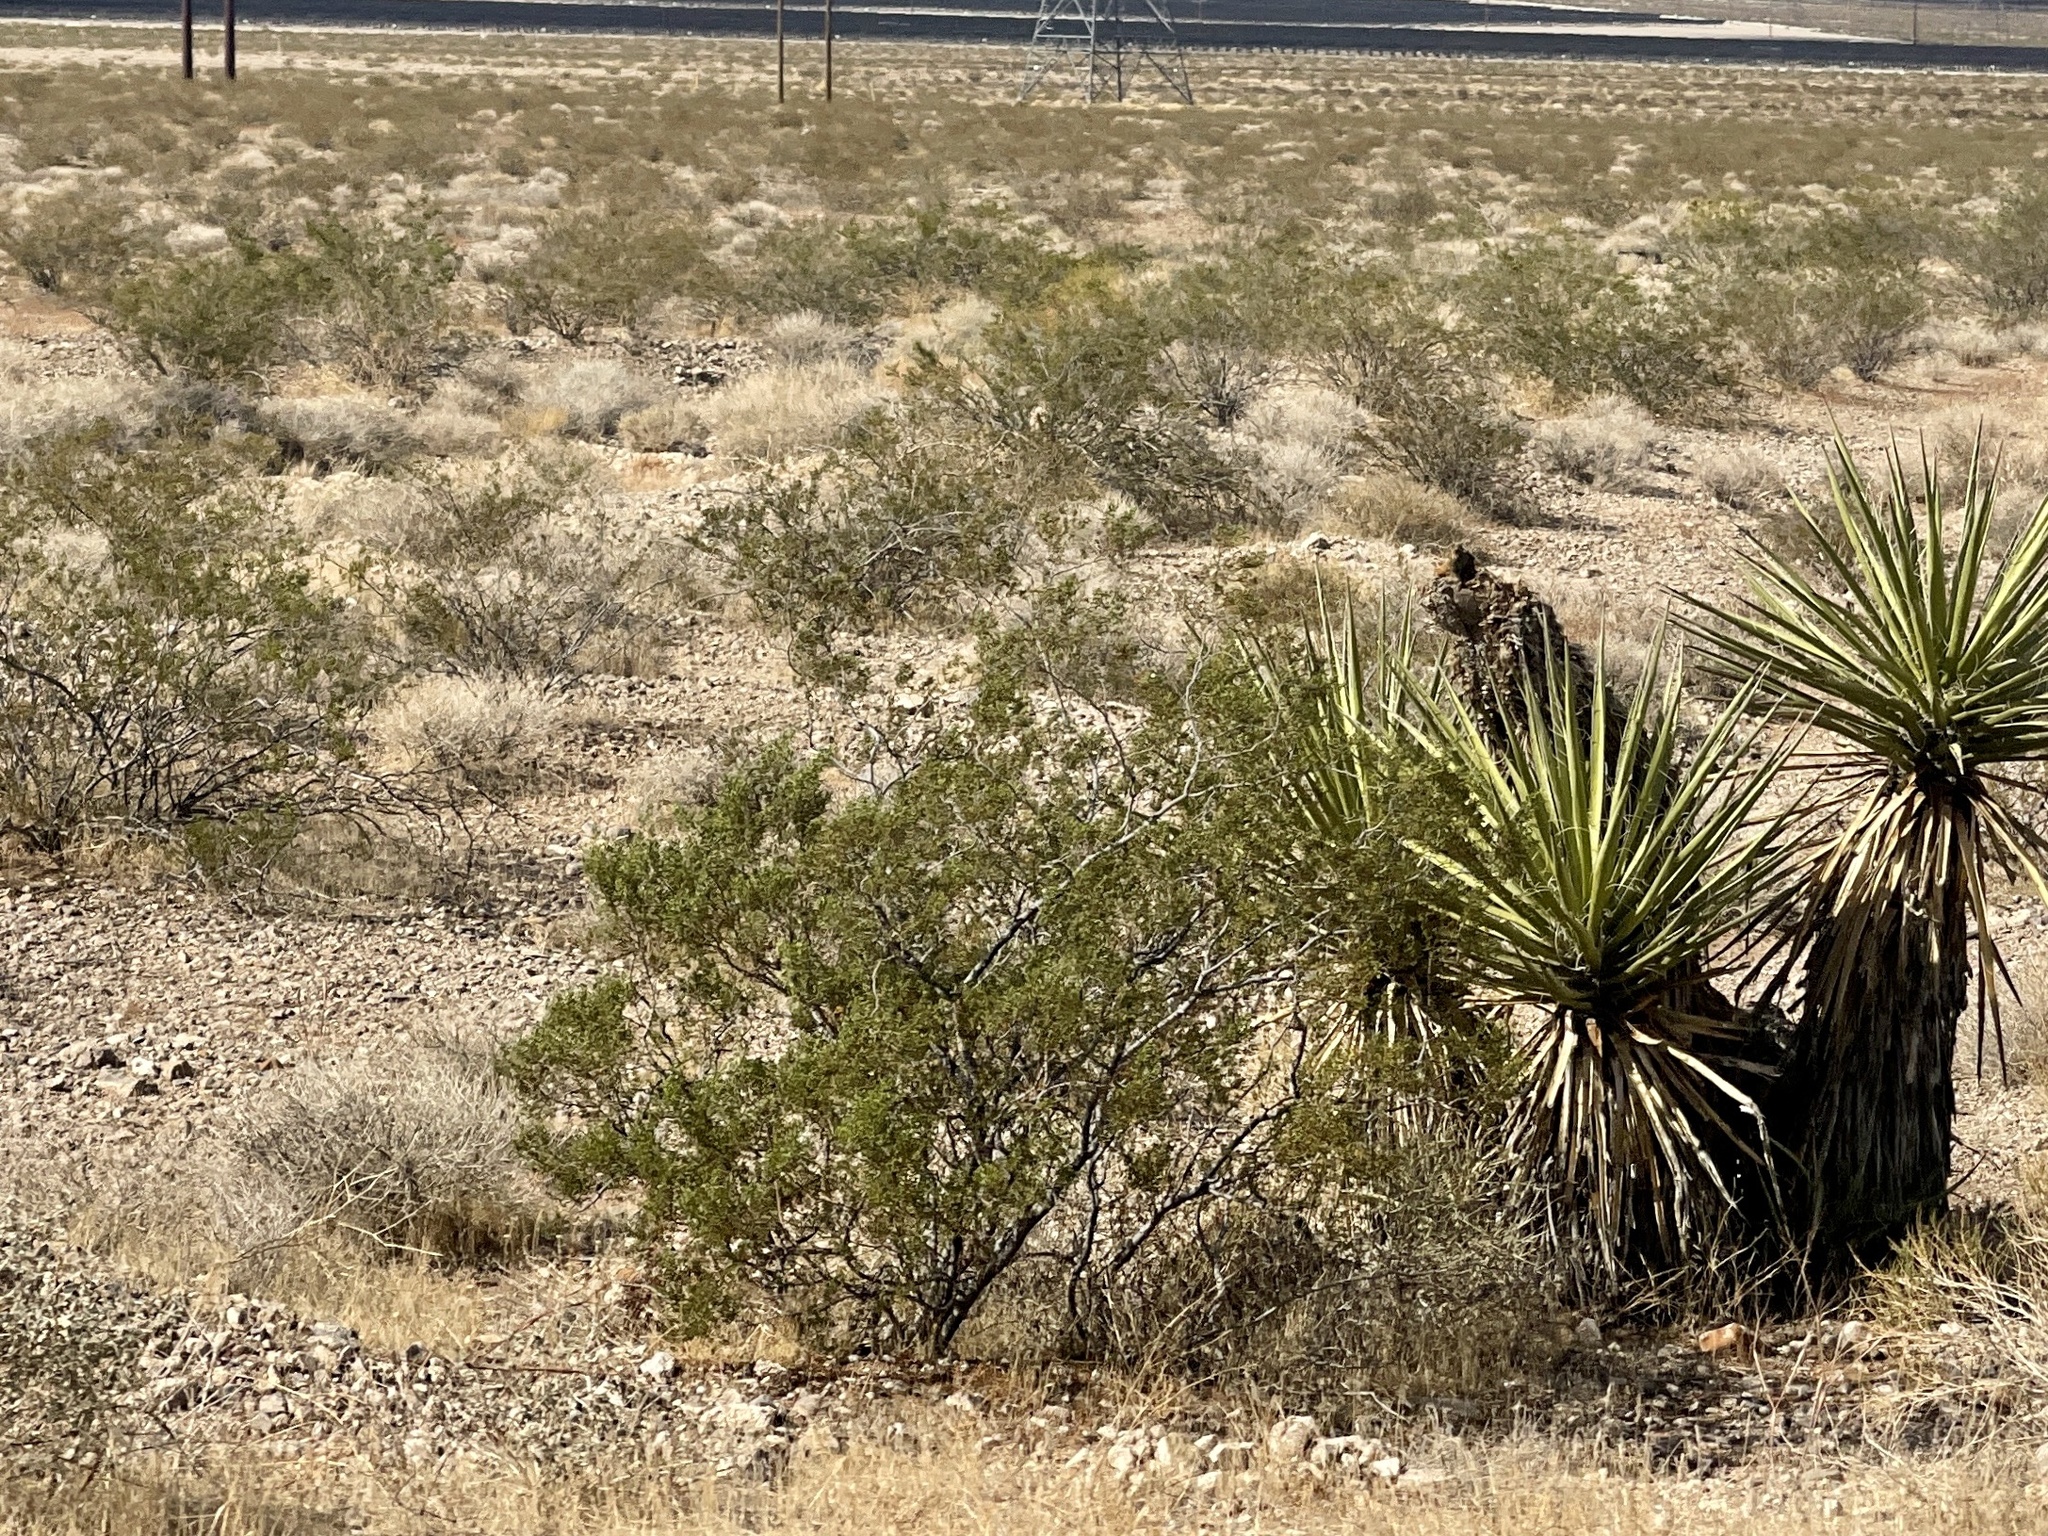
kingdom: Plantae
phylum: Tracheophyta
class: Magnoliopsida
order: Zygophyllales
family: Zygophyllaceae
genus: Larrea
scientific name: Larrea tridentata
